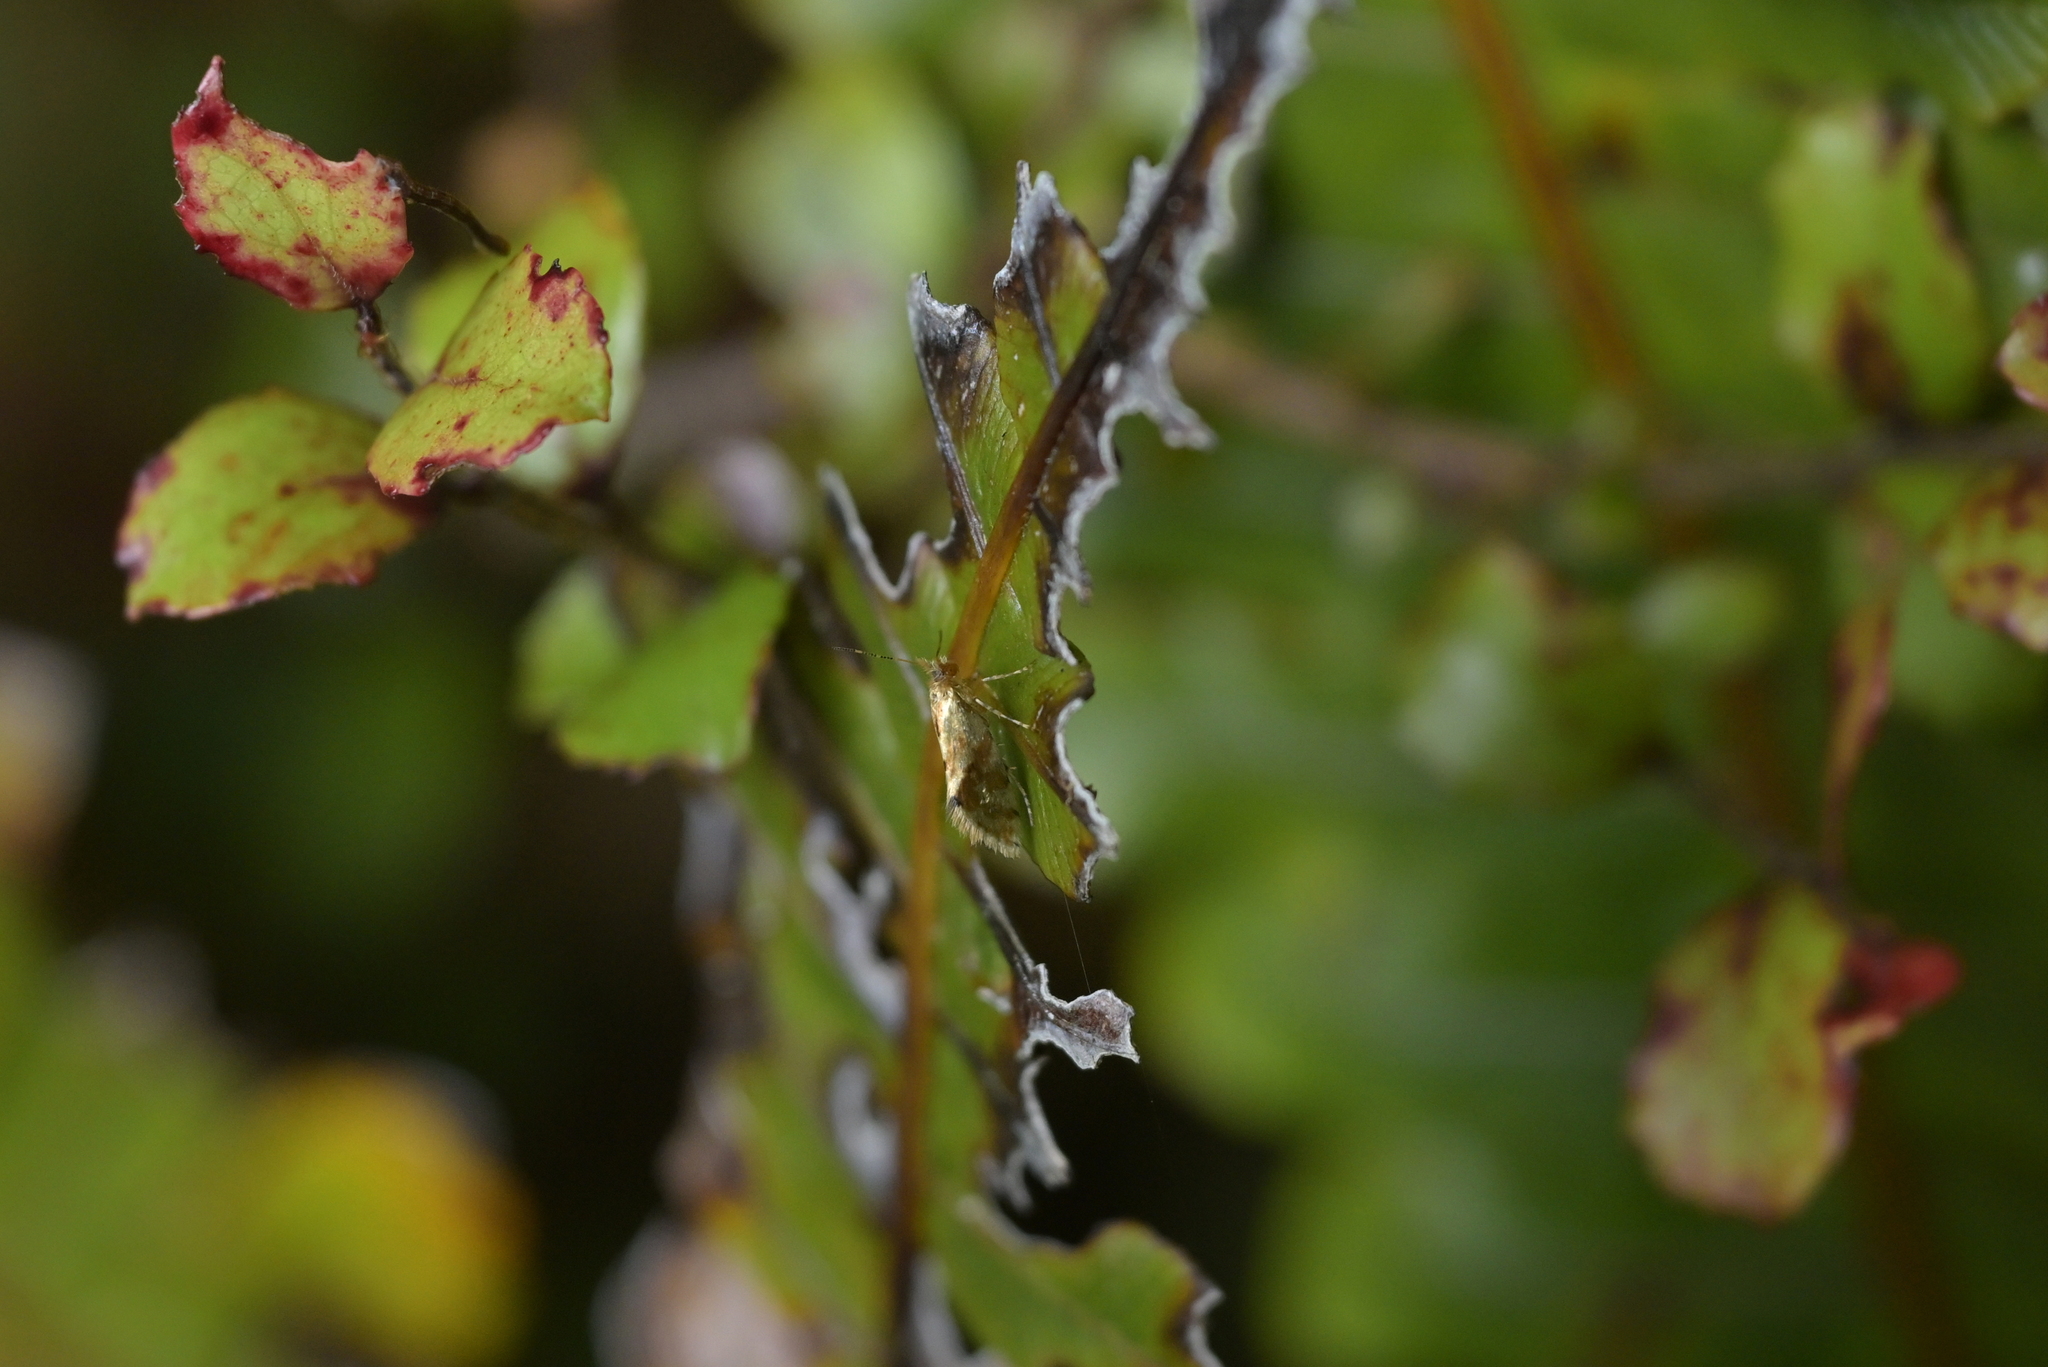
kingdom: Animalia
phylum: Arthropoda
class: Insecta
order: Lepidoptera
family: Micropterigidae
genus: Sabatinca
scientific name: Sabatinca chalcophanes
